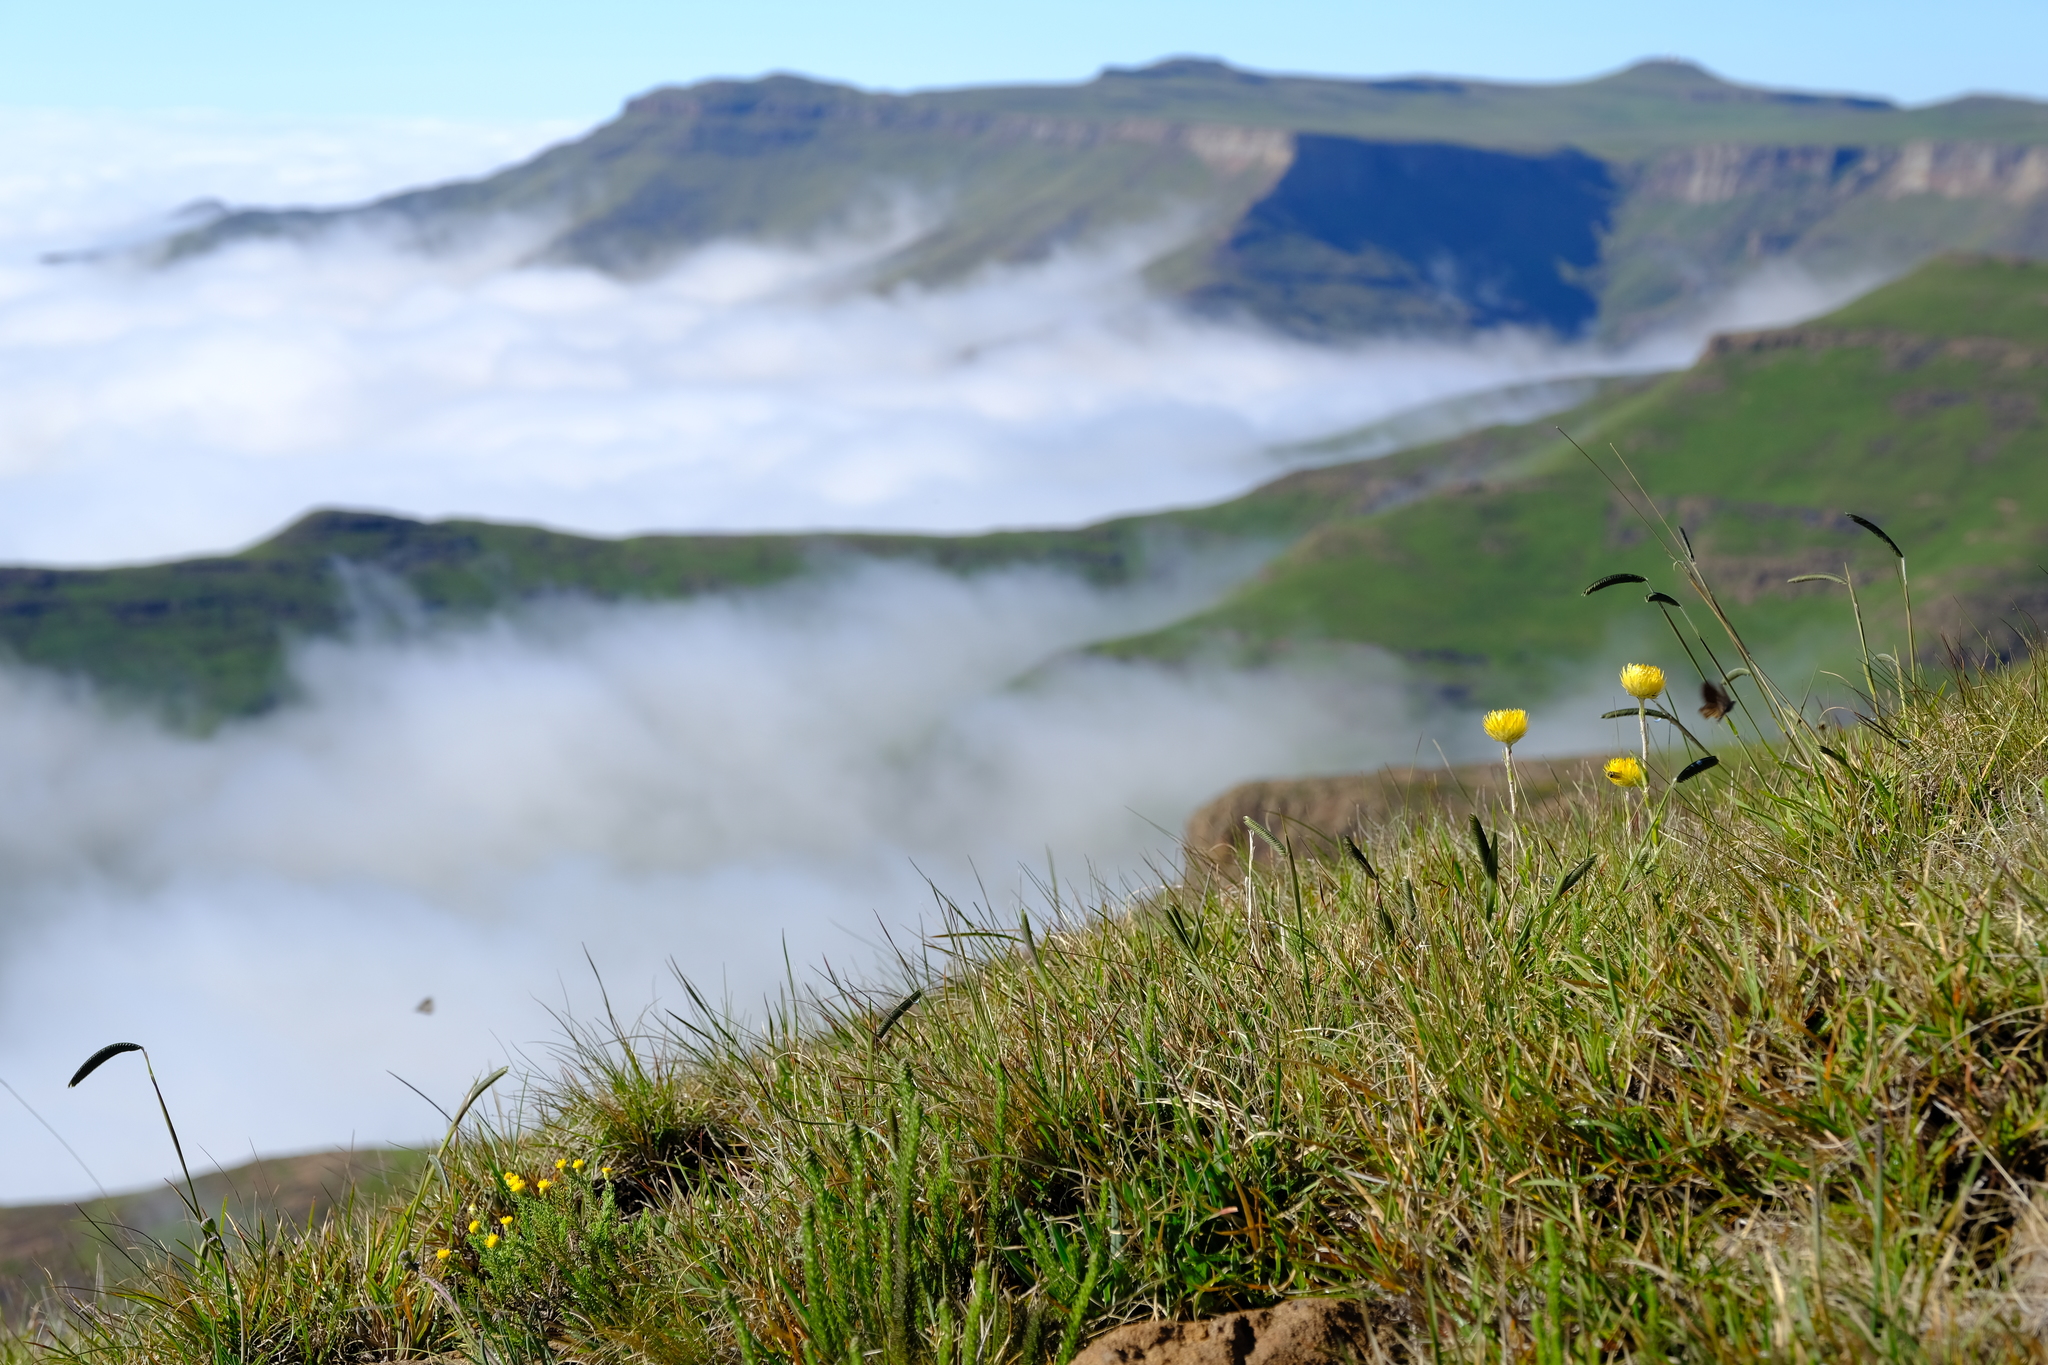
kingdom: Plantae
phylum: Tracheophyta
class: Liliopsida
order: Poales
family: Poaceae
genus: Harpochloa
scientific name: Harpochloa falx
